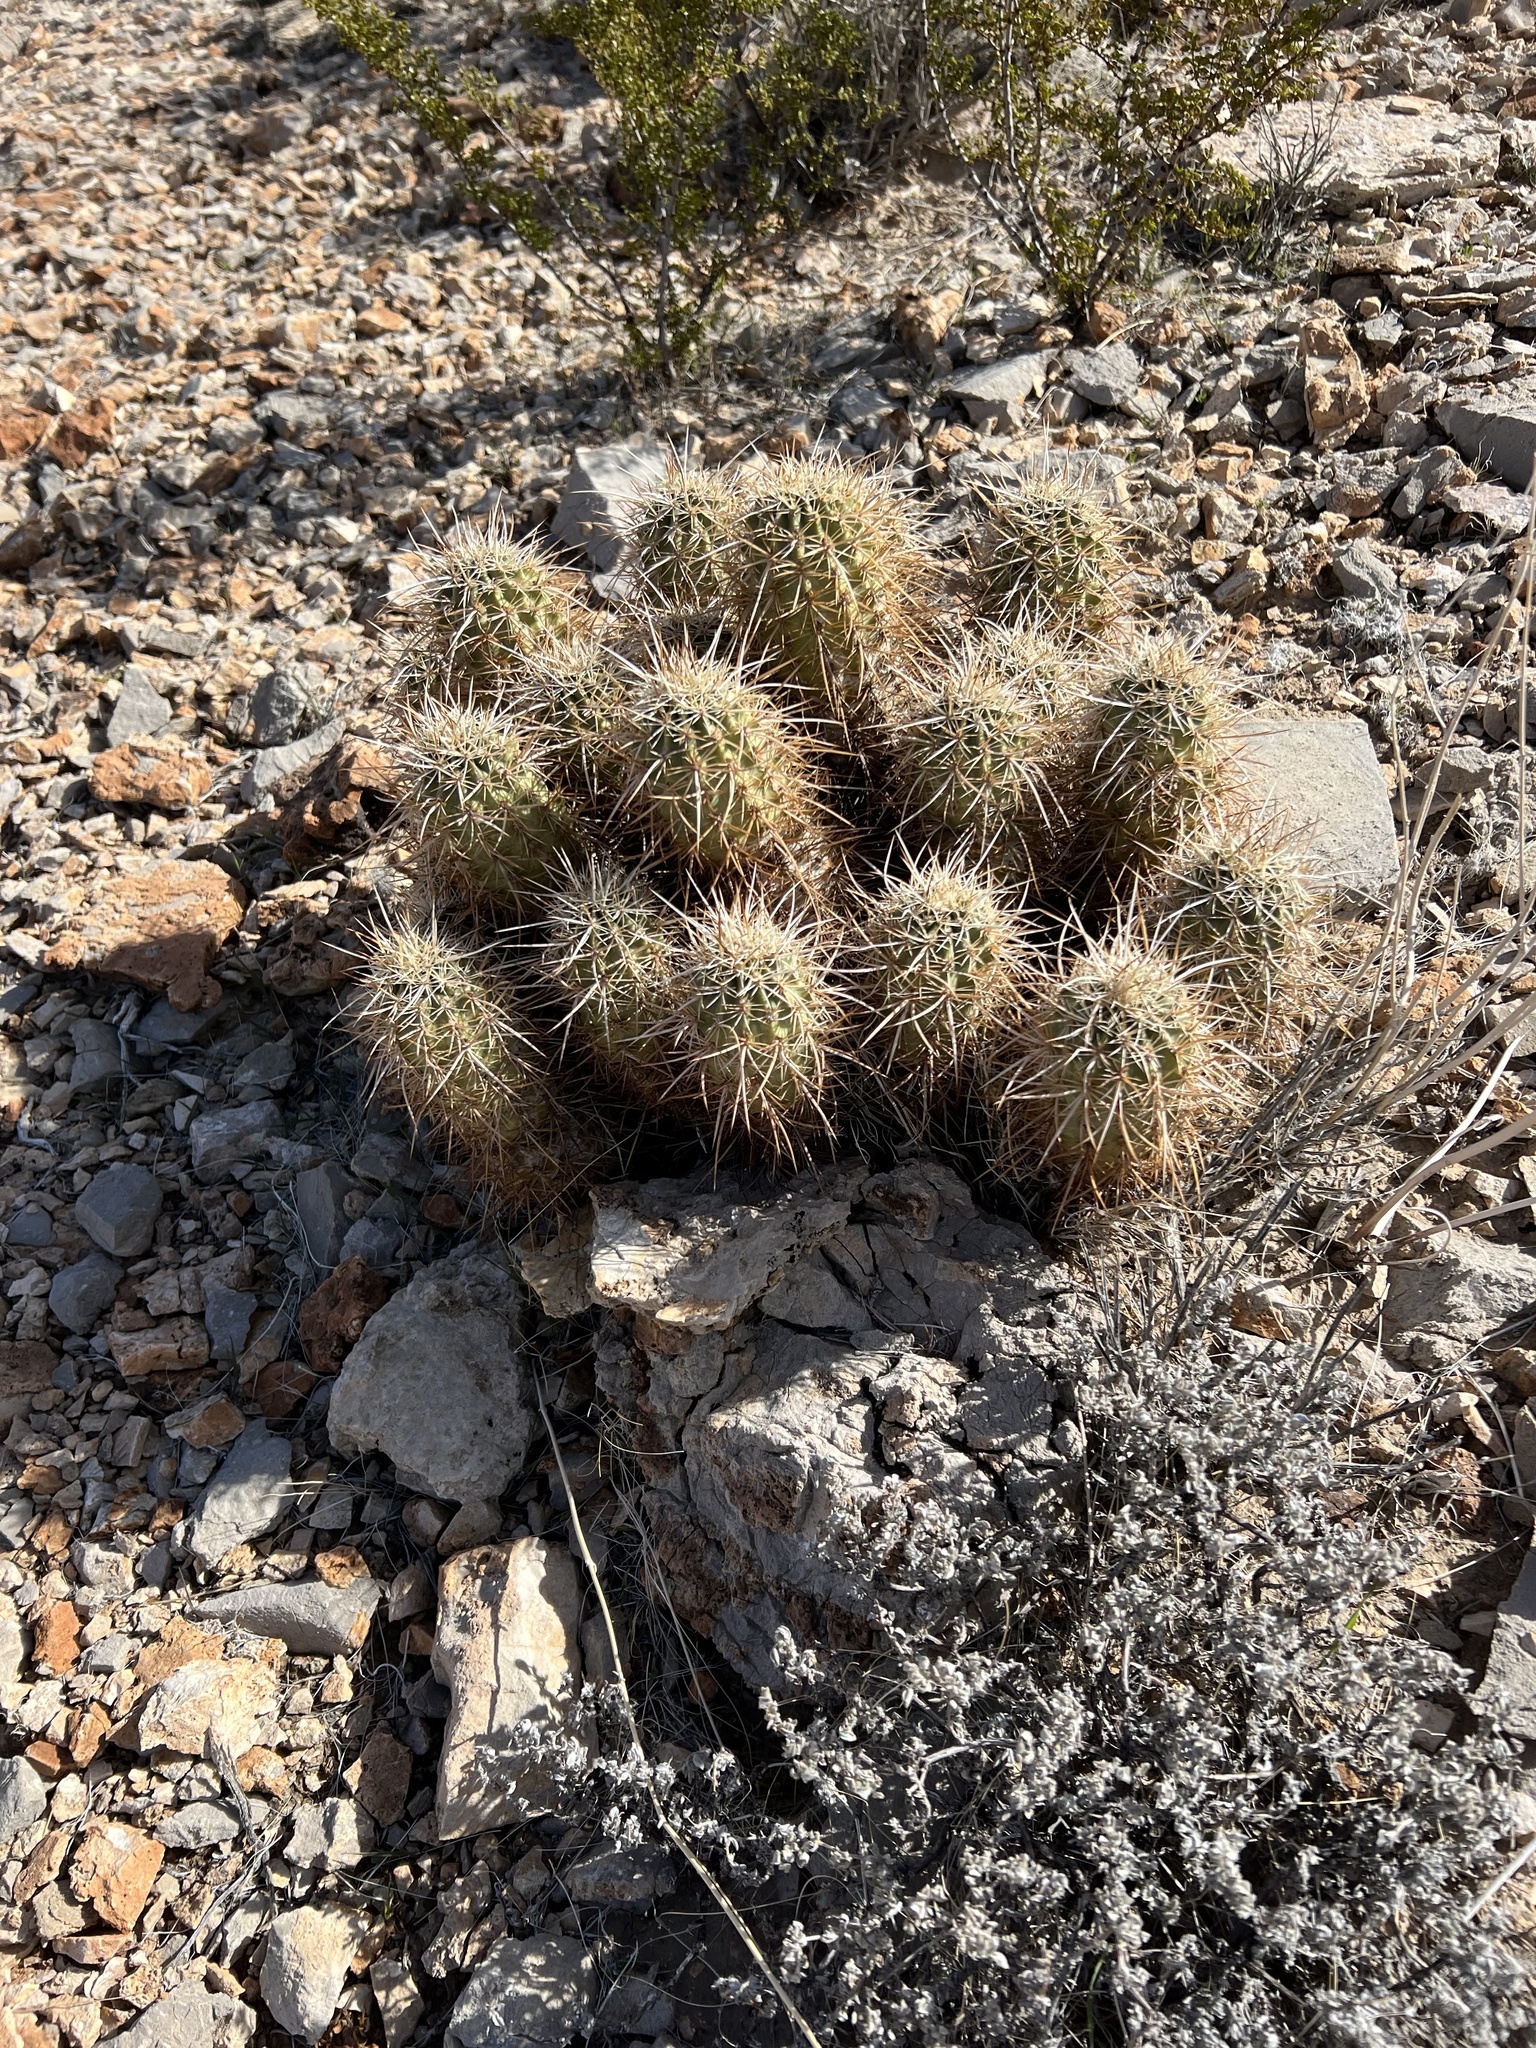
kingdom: Plantae
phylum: Tracheophyta
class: Magnoliopsida
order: Caryophyllales
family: Cactaceae
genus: Echinocereus
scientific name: Echinocereus engelmannii
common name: Engelmann's hedgehog cactus
